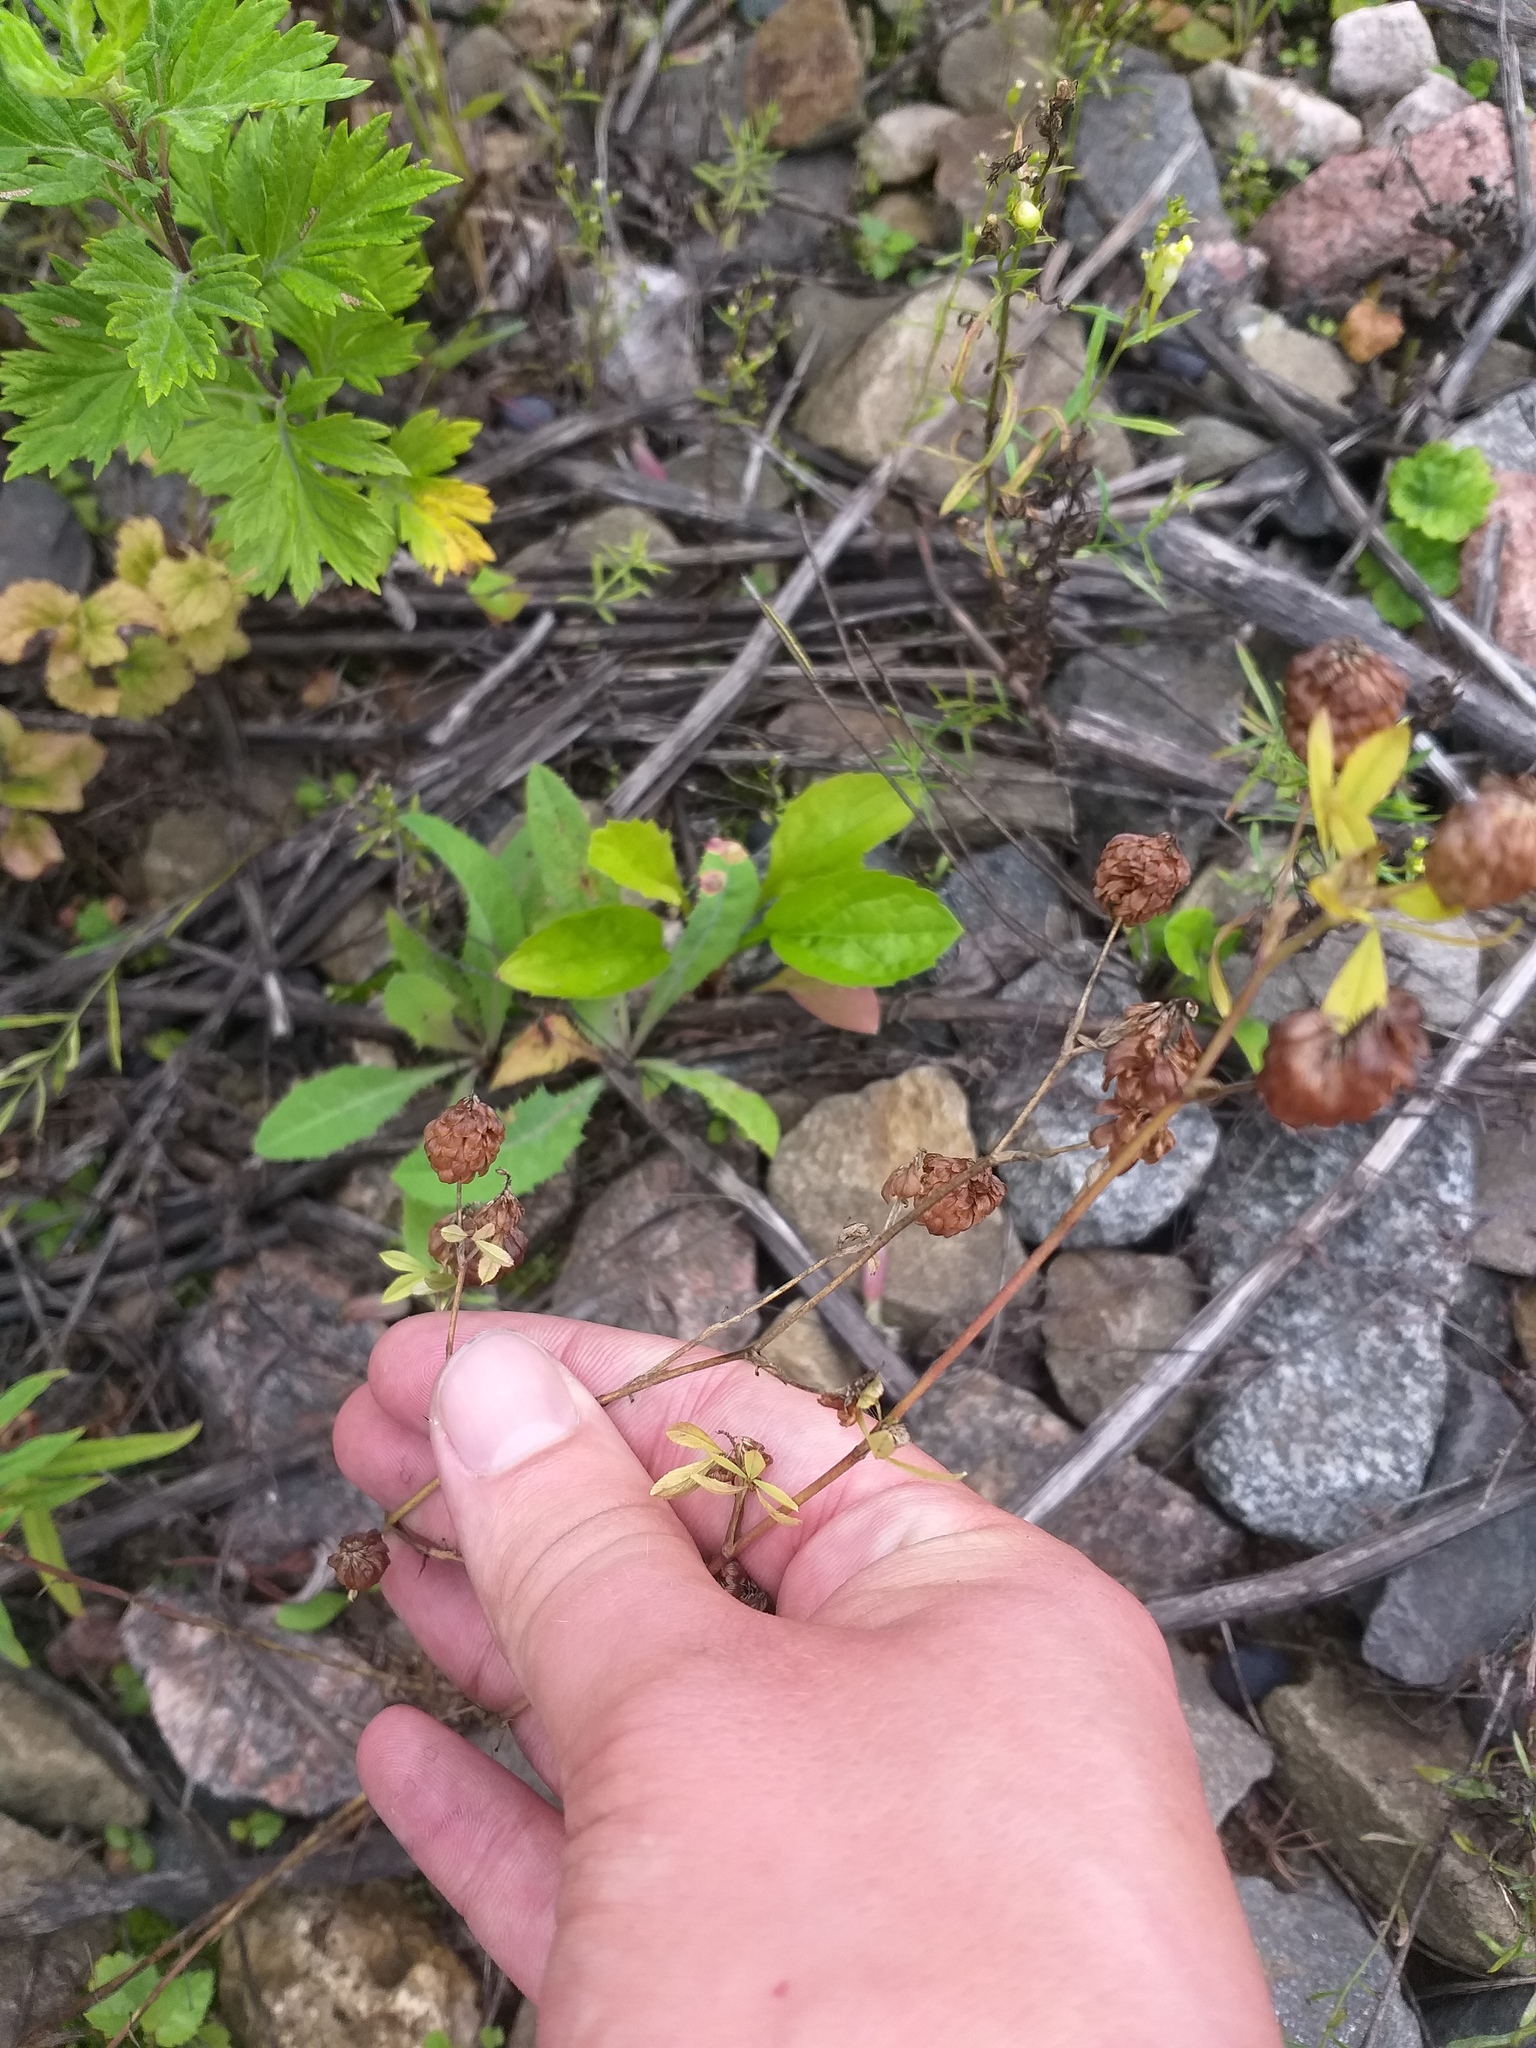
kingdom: Plantae
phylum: Tracheophyta
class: Magnoliopsida
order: Fabales
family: Fabaceae
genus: Trifolium
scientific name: Trifolium aureum
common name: Golden clover
